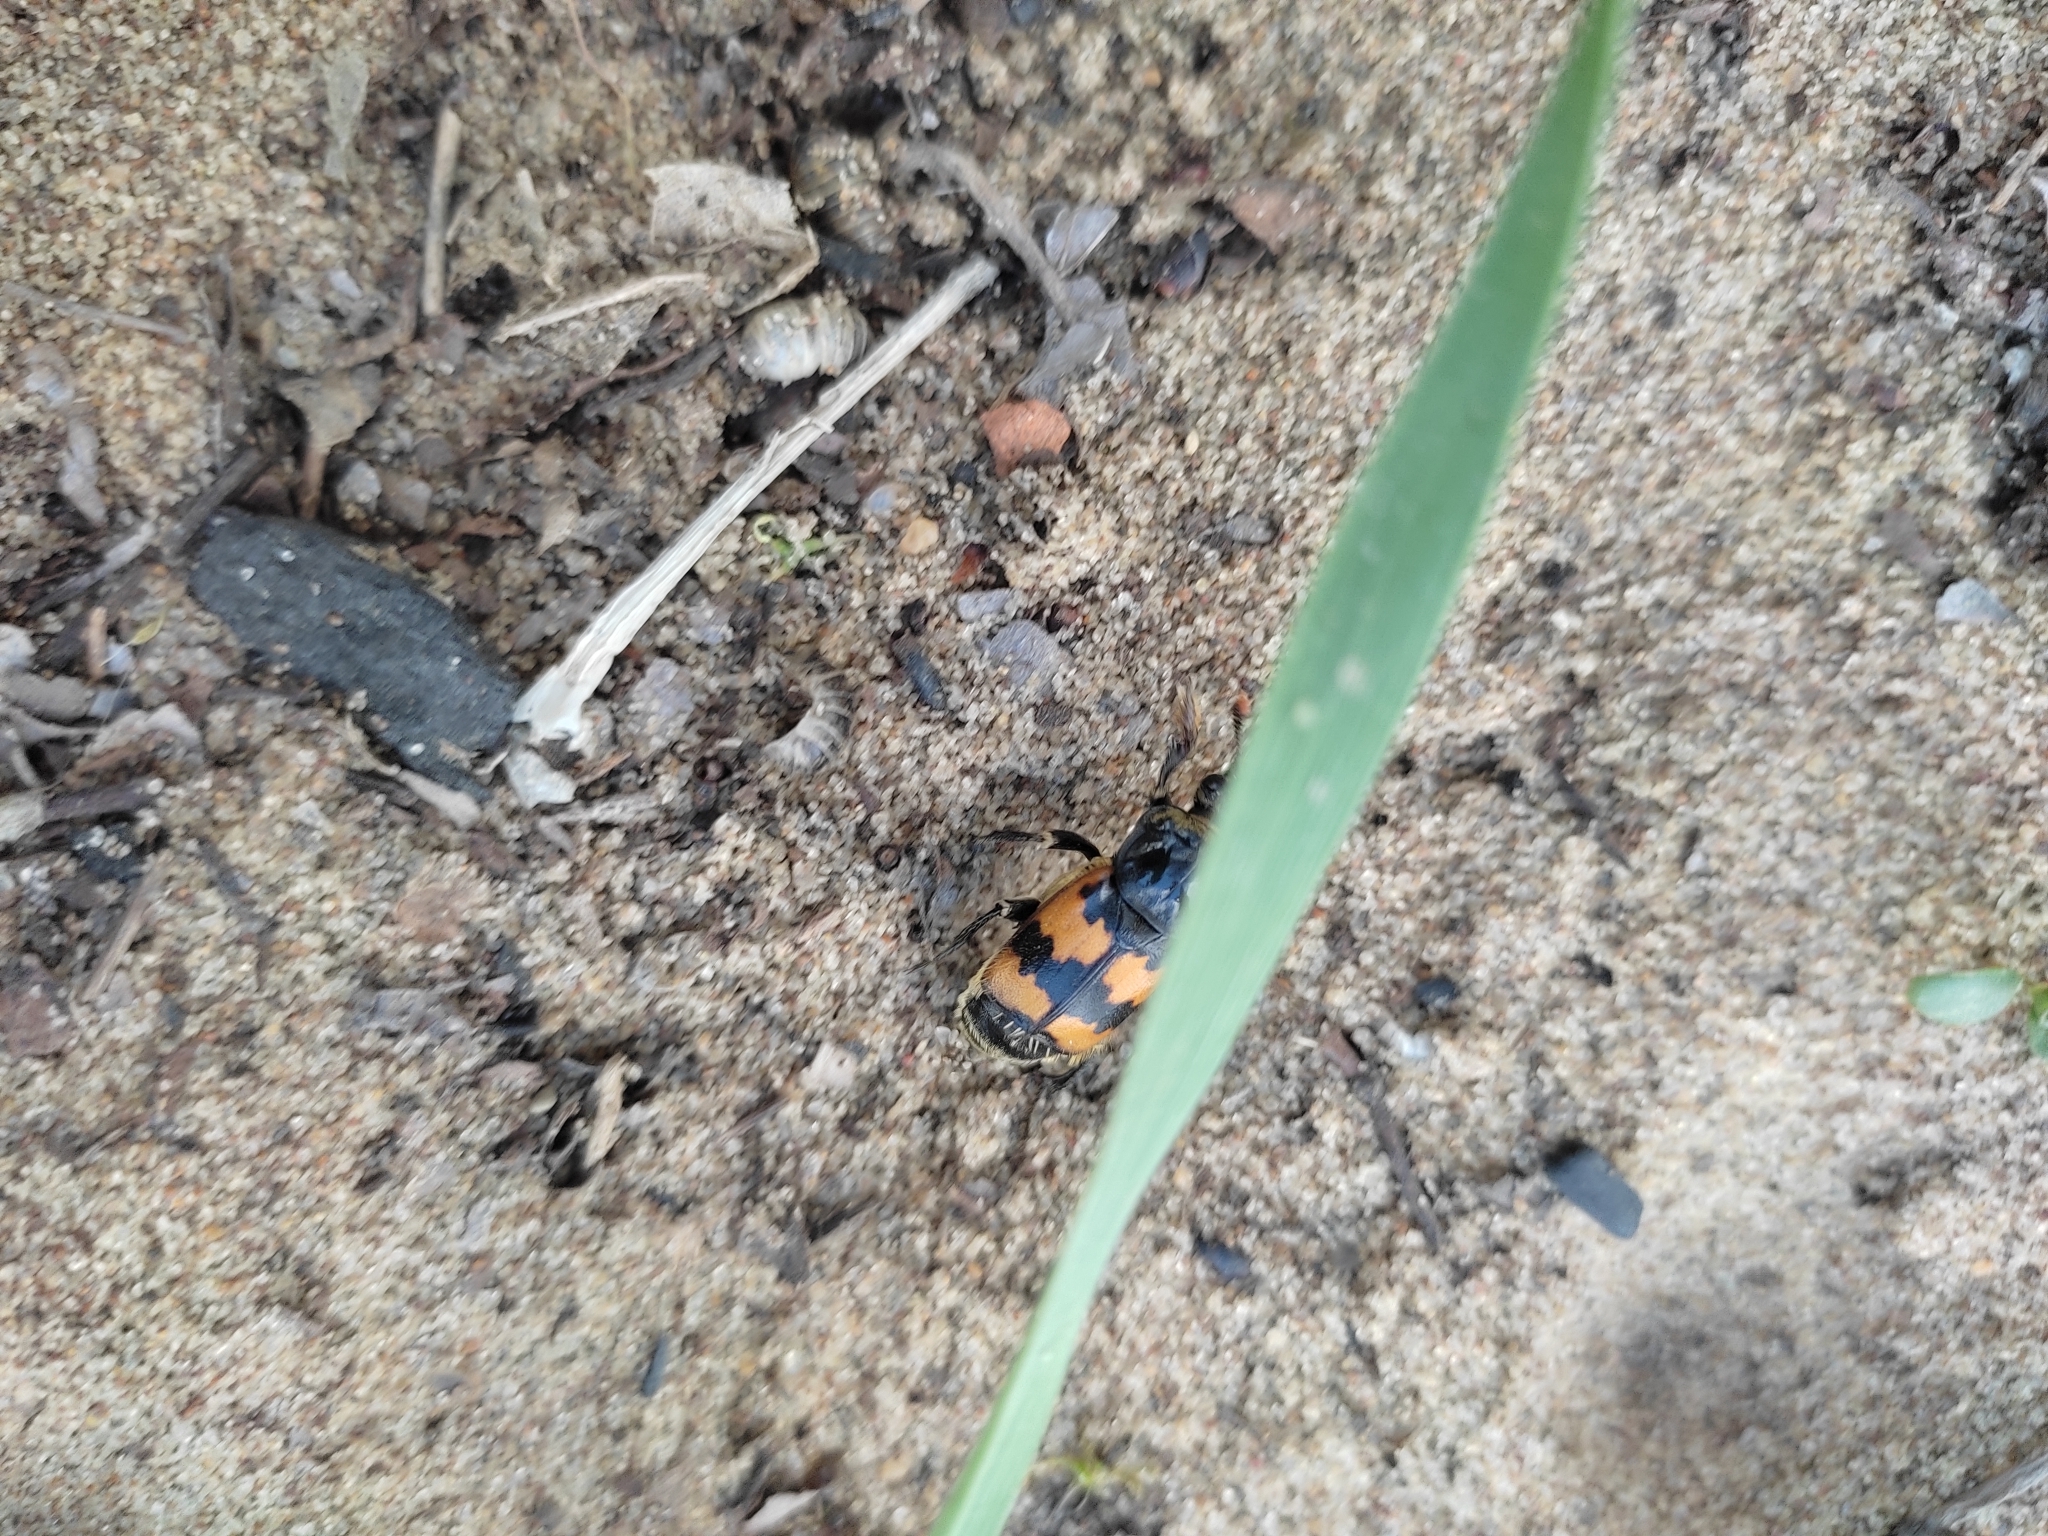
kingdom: Animalia
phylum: Arthropoda
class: Insecta
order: Coleoptera
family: Staphylinidae
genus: Nicrophorus
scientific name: Nicrophorus vespillo
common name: Common burying beetle
